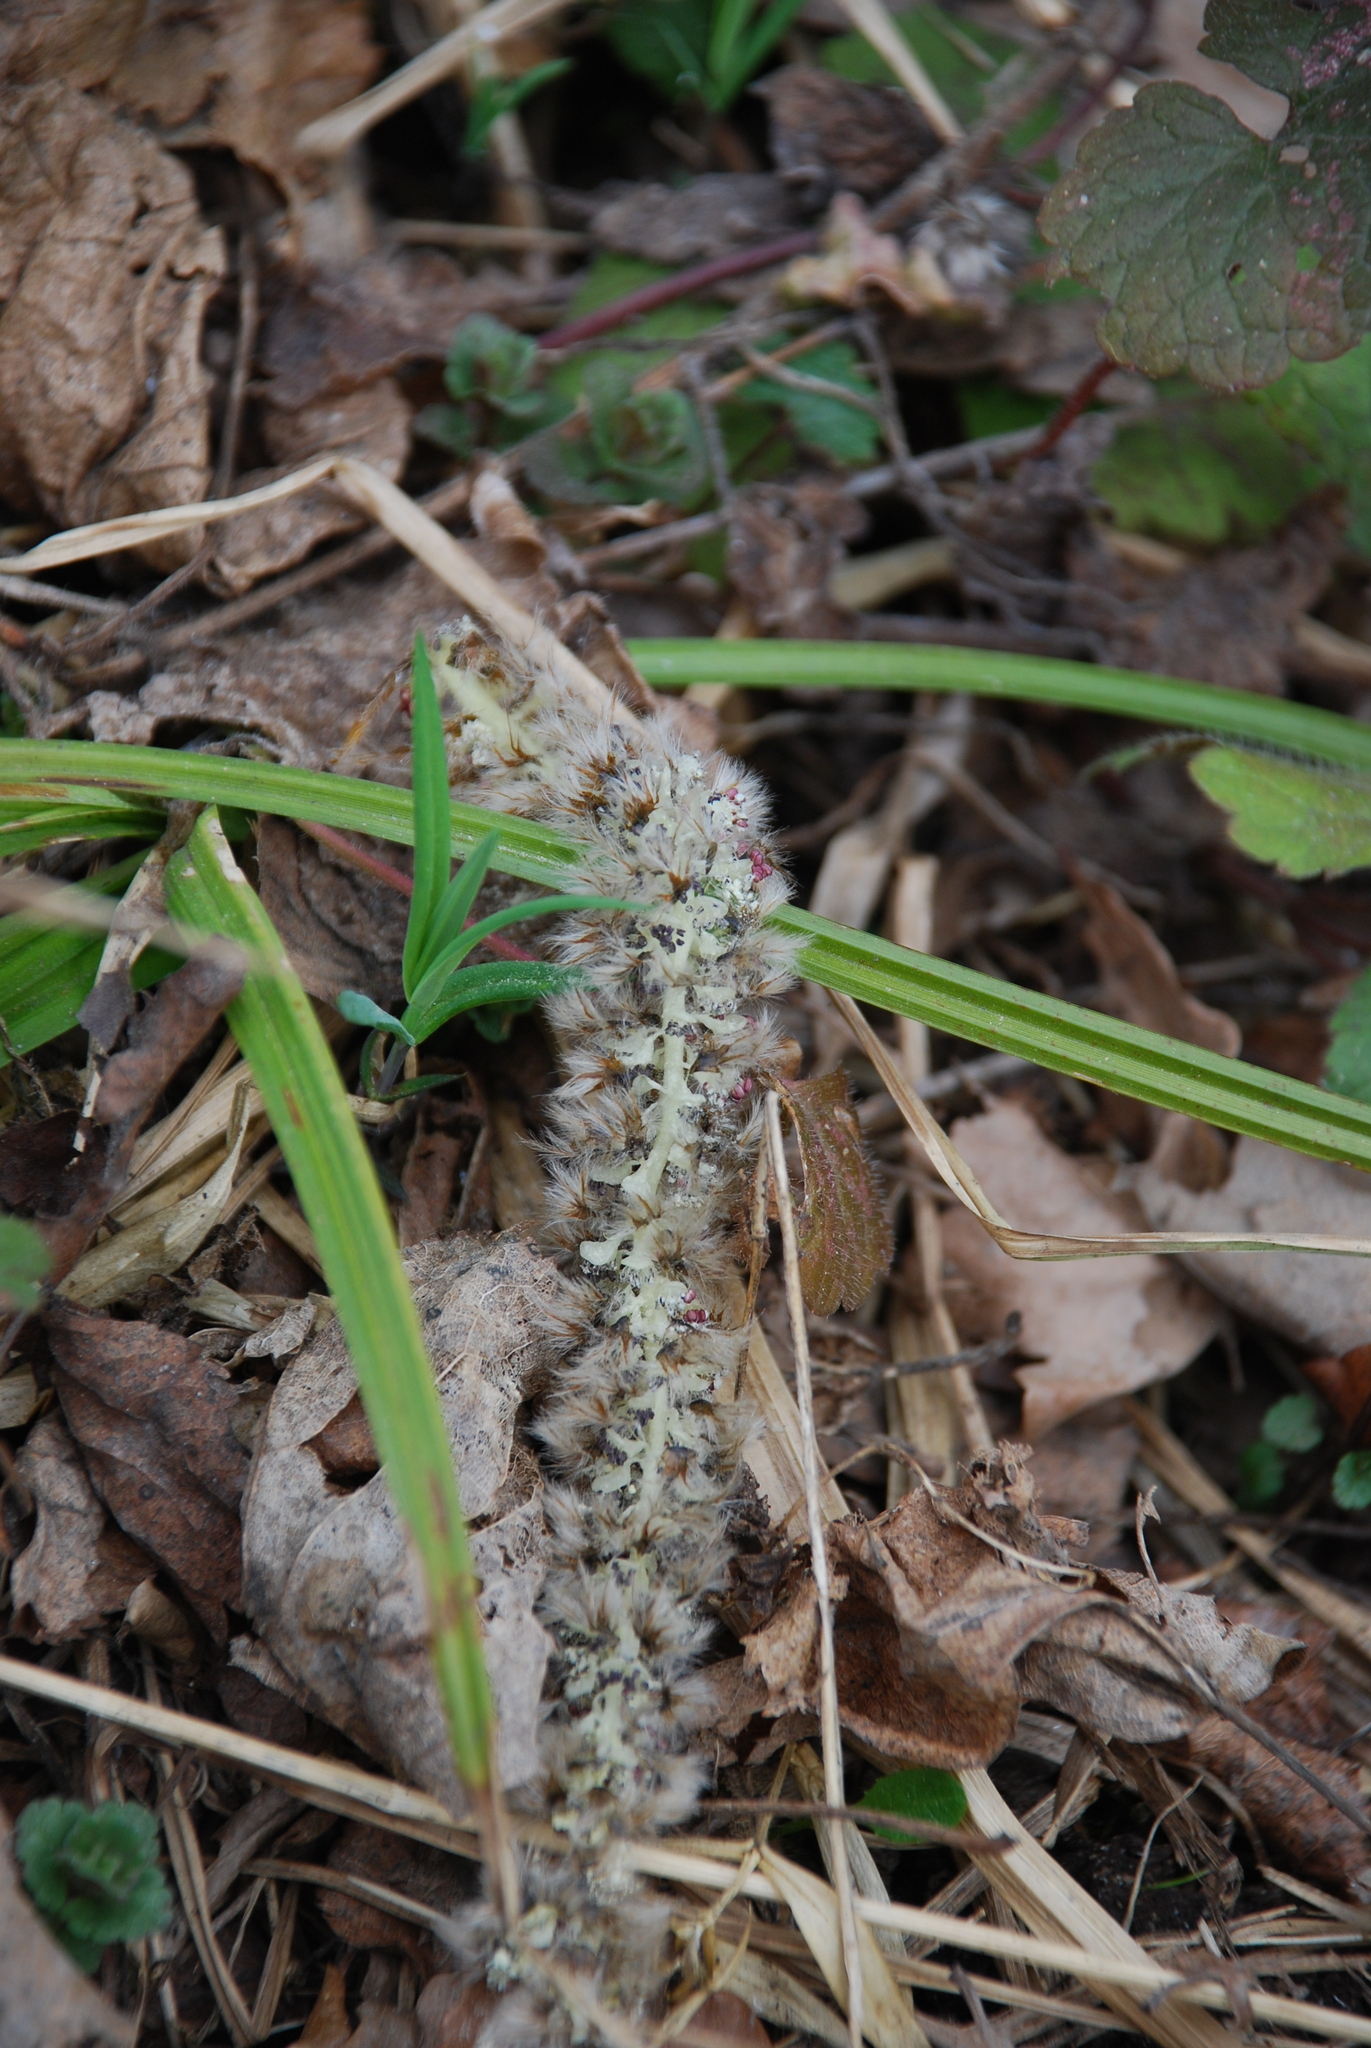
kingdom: Plantae
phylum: Tracheophyta
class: Magnoliopsida
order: Malpighiales
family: Salicaceae
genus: Populus
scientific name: Populus tremula
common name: European aspen
